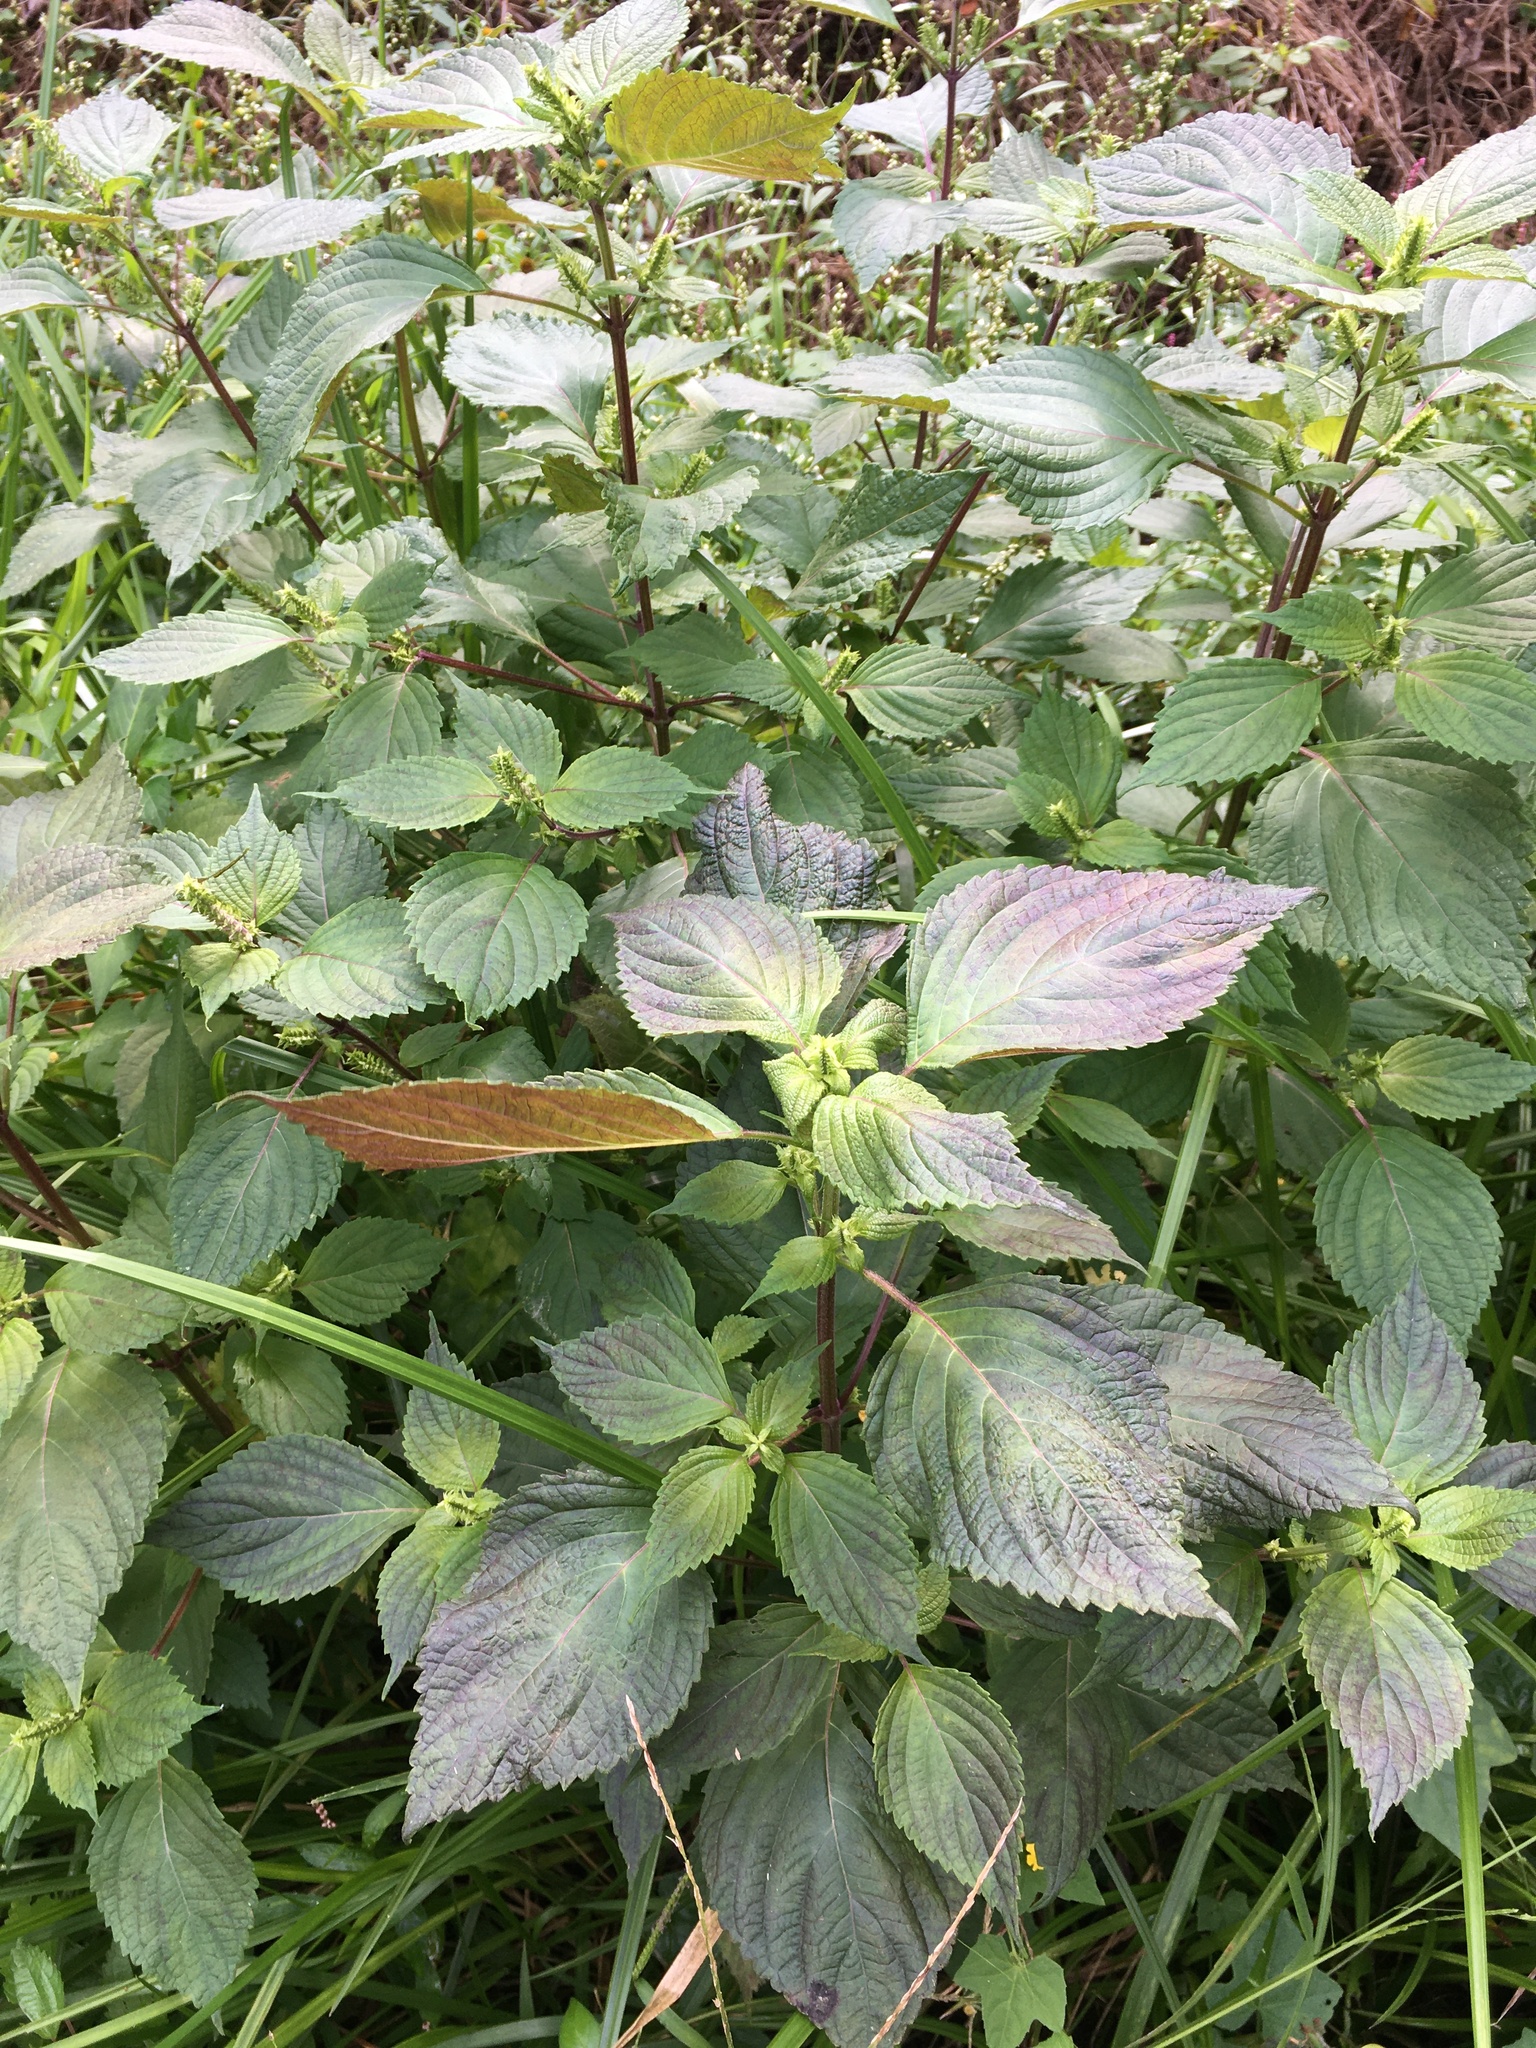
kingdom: Plantae
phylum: Tracheophyta
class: Magnoliopsida
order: Lamiales
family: Lamiaceae
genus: Perilla
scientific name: Perilla frutescens
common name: Perilla
